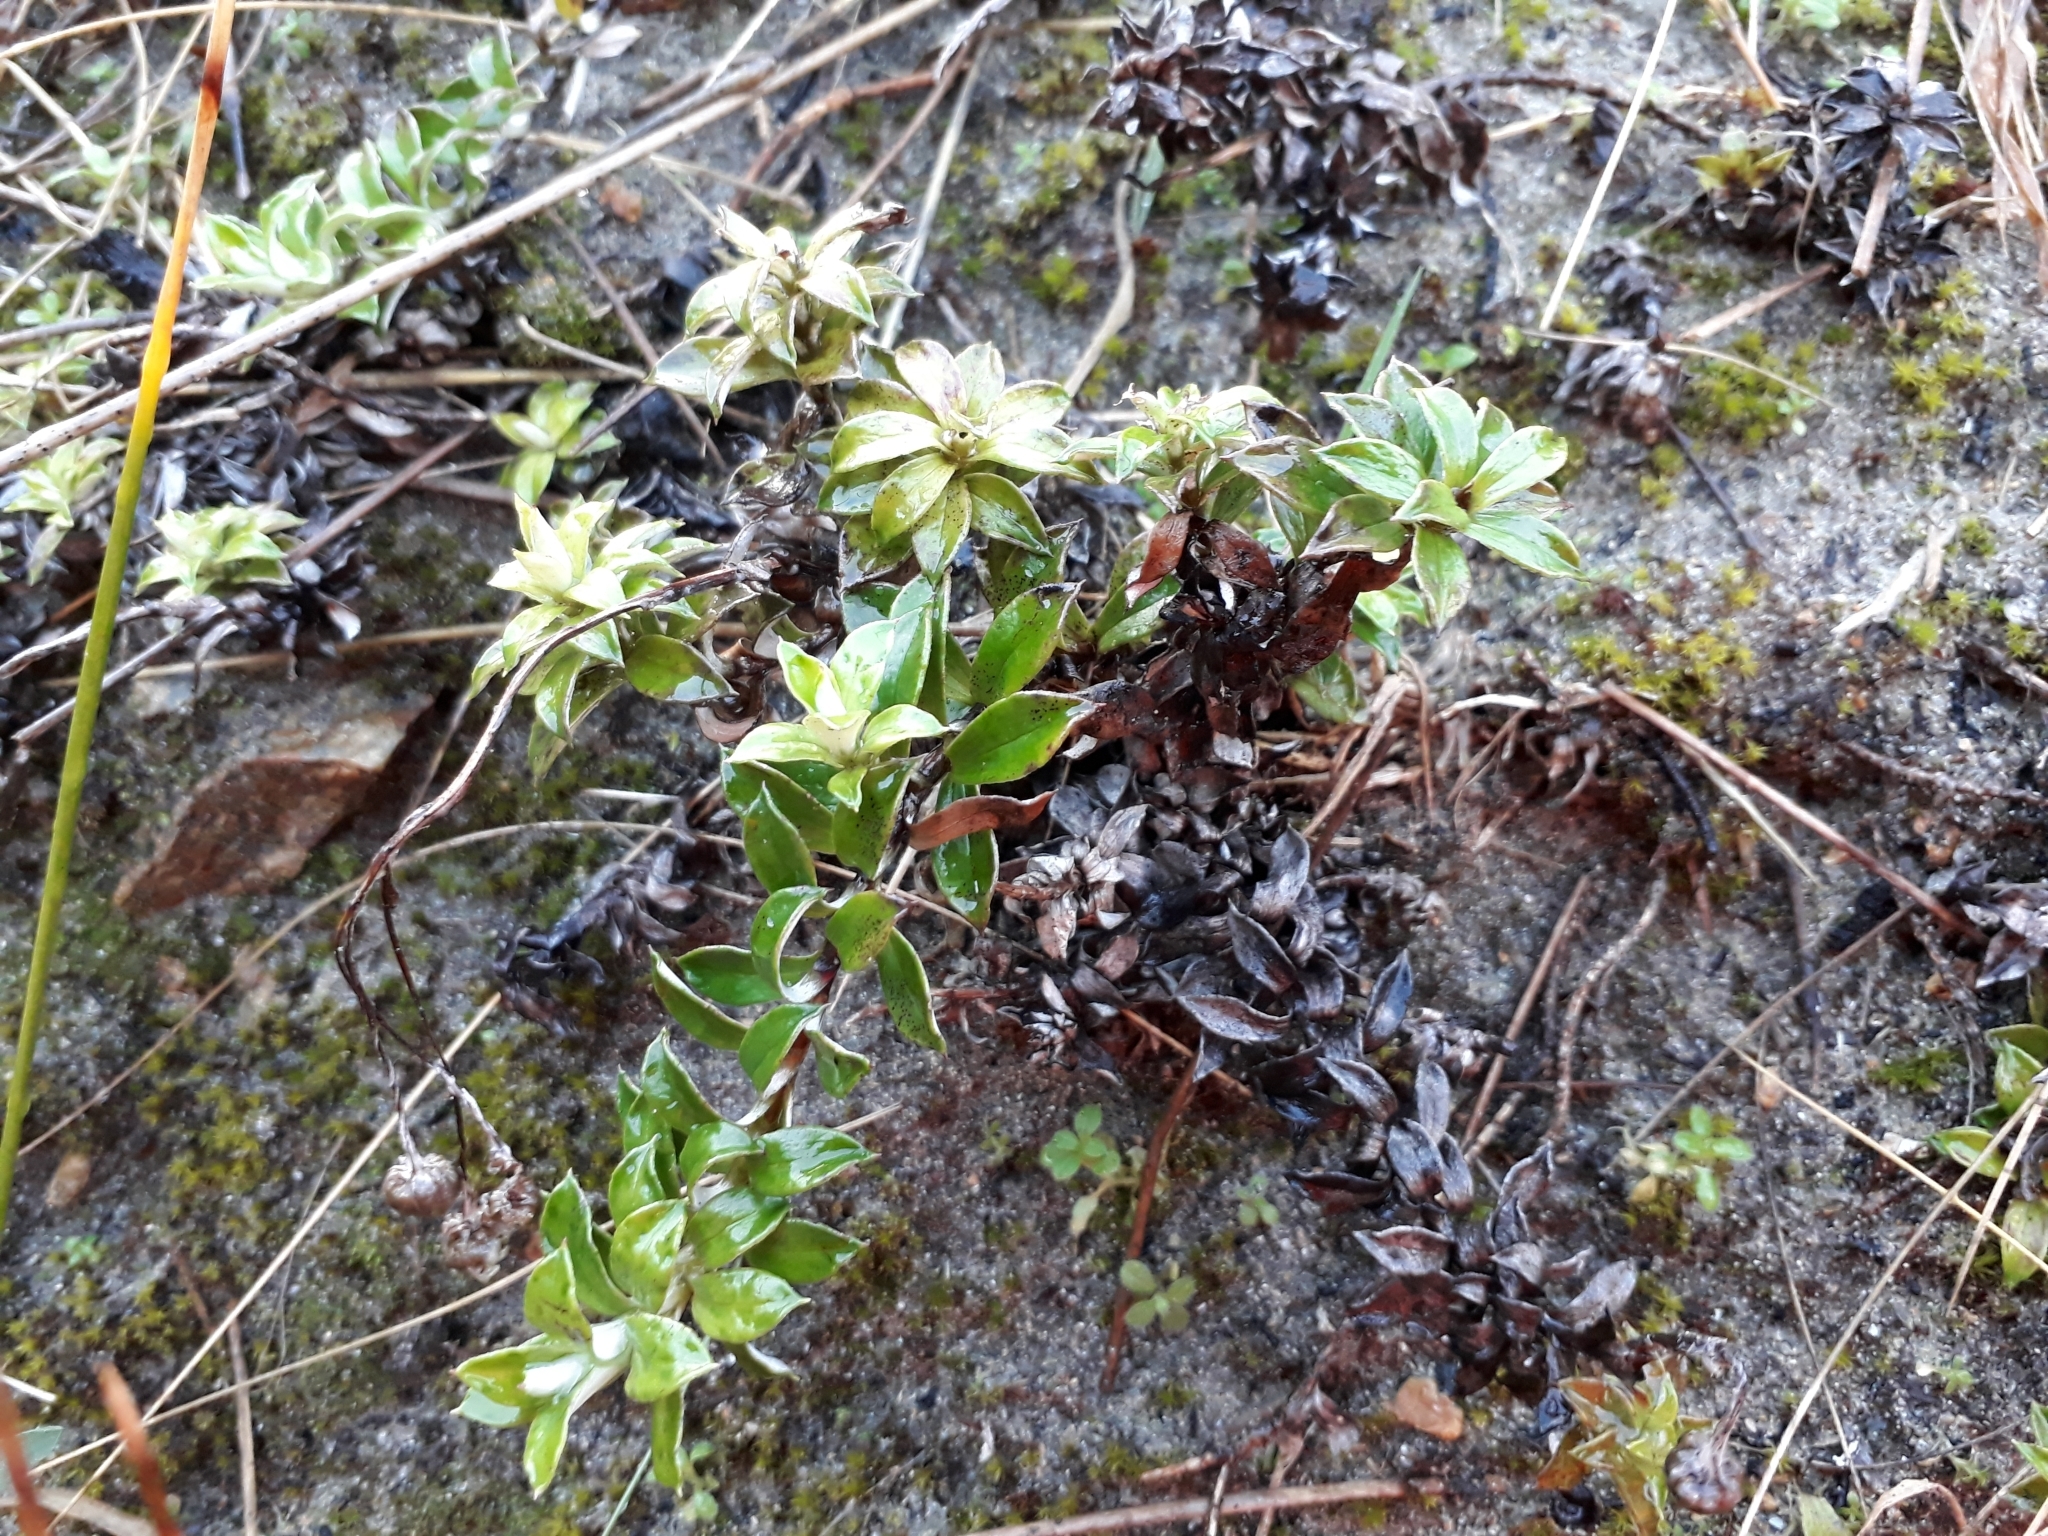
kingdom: Plantae
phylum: Tracheophyta
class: Magnoliopsida
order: Asterales
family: Asteraceae
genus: Anaphalioides
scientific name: Anaphalioides hookeri
